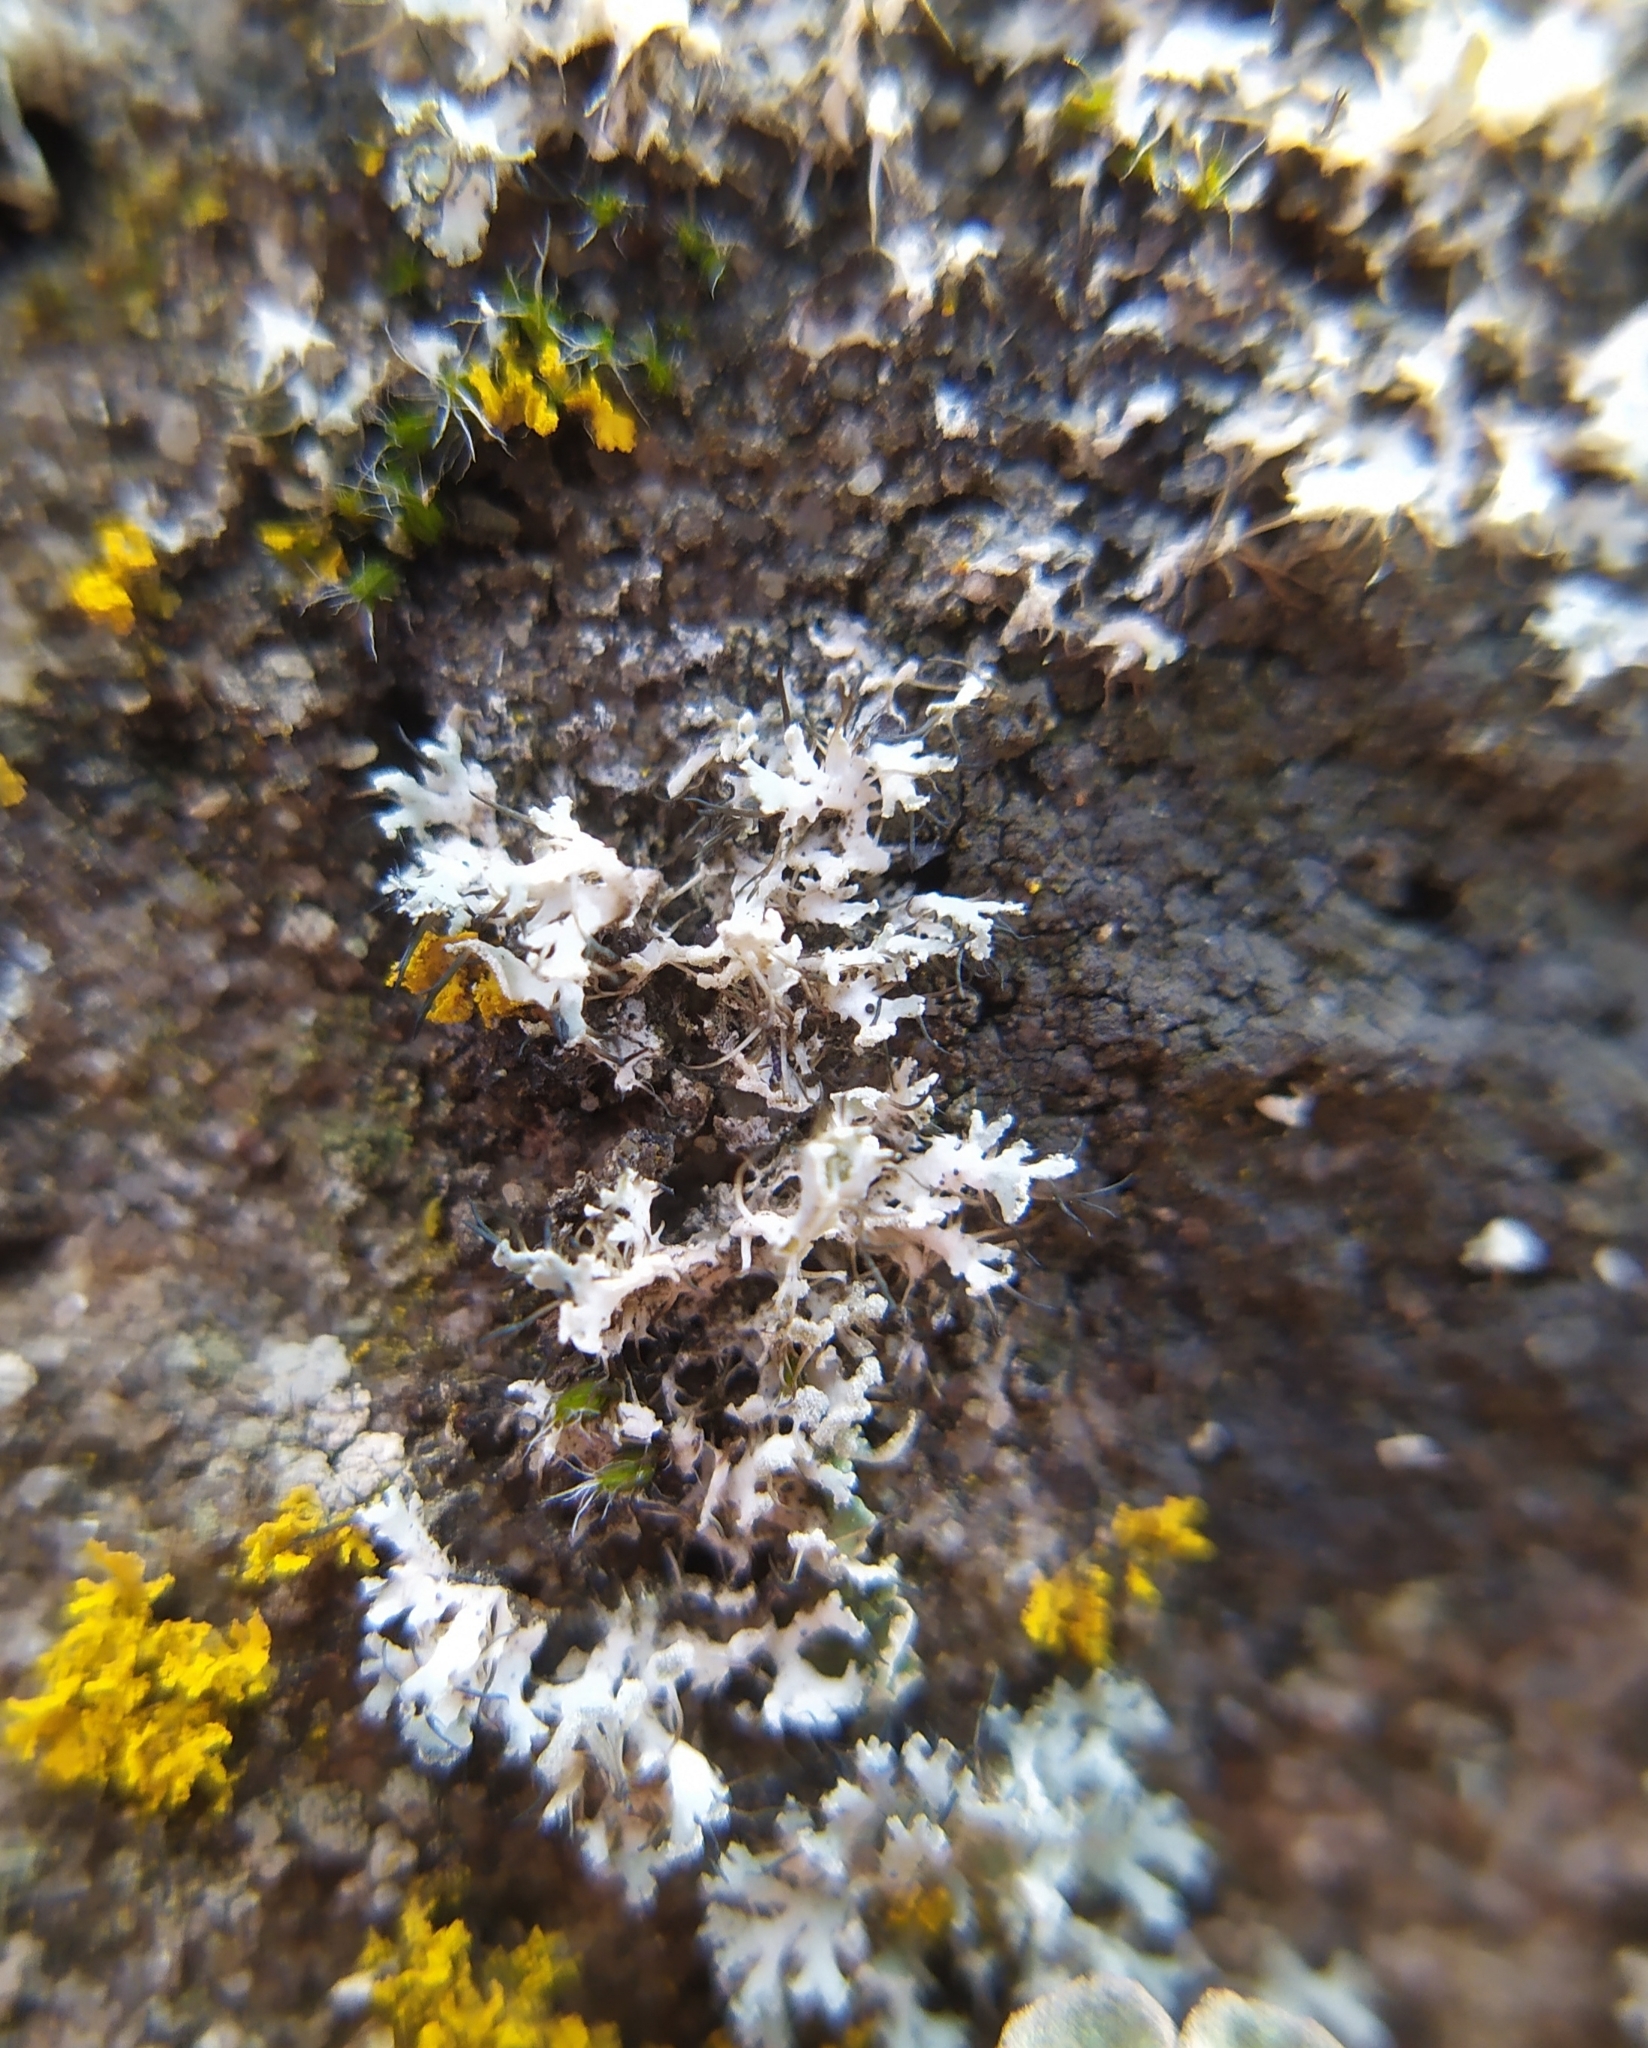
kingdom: Fungi
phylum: Ascomycota
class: Lecanoromycetes
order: Caliciales
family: Physciaceae
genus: Physcia
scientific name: Physcia tenella
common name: Fringed rosette lichen
